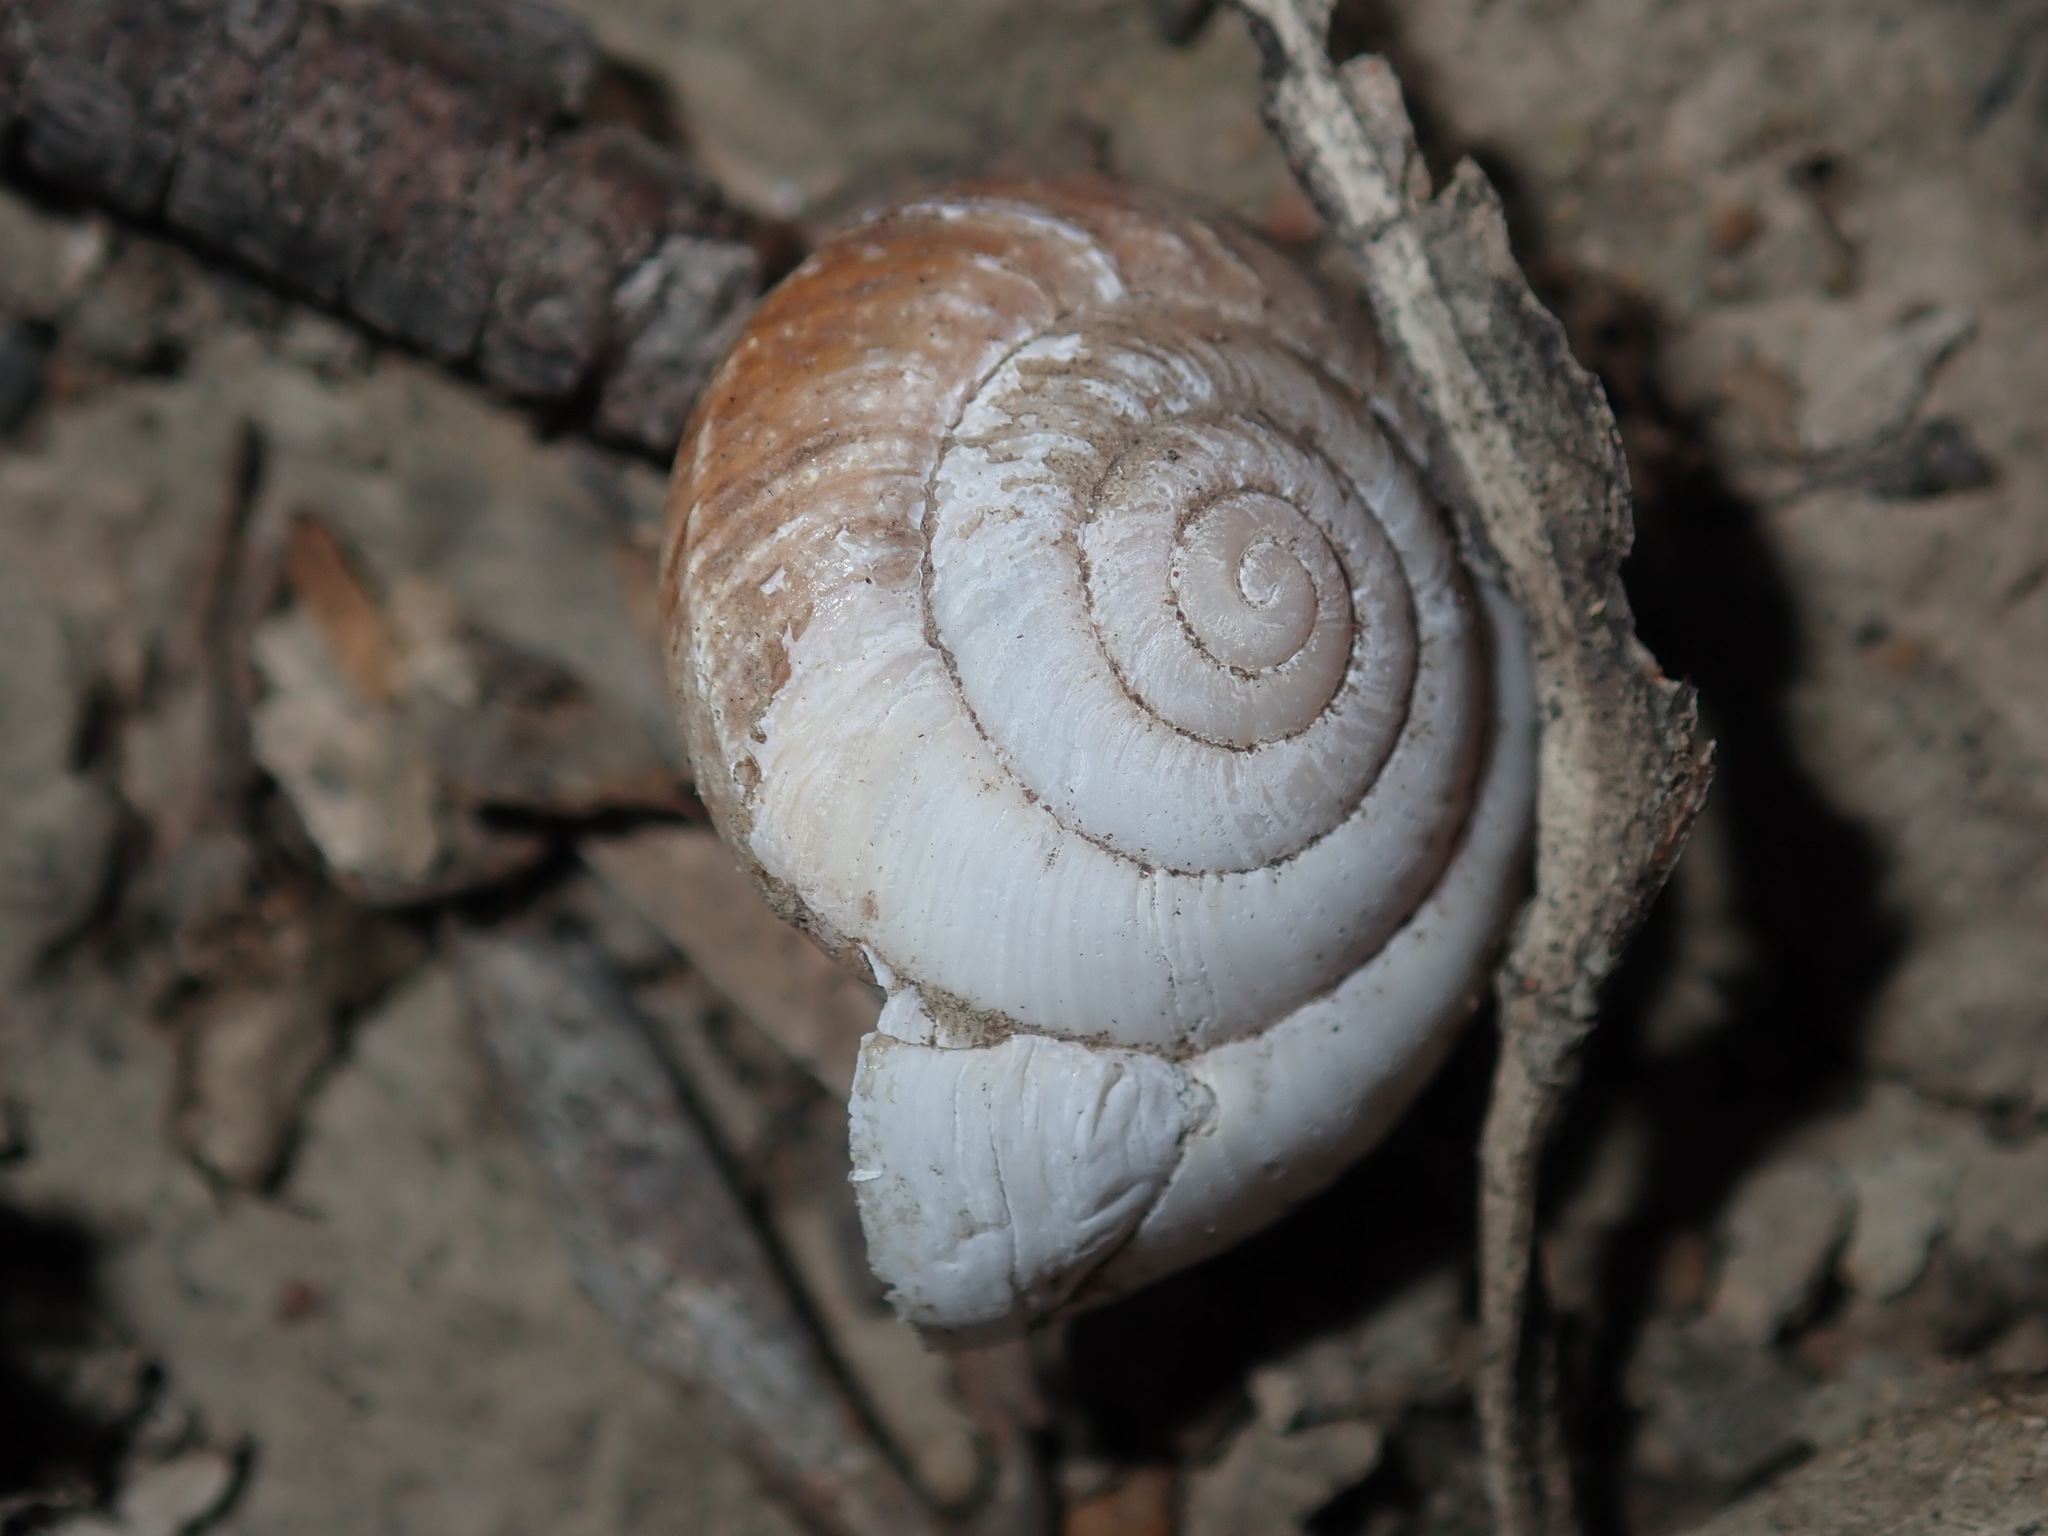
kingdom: Animalia
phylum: Mollusca
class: Gastropoda
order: Stylommatophora
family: Camaenidae
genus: Sauroconcha
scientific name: Sauroconcha sheai
